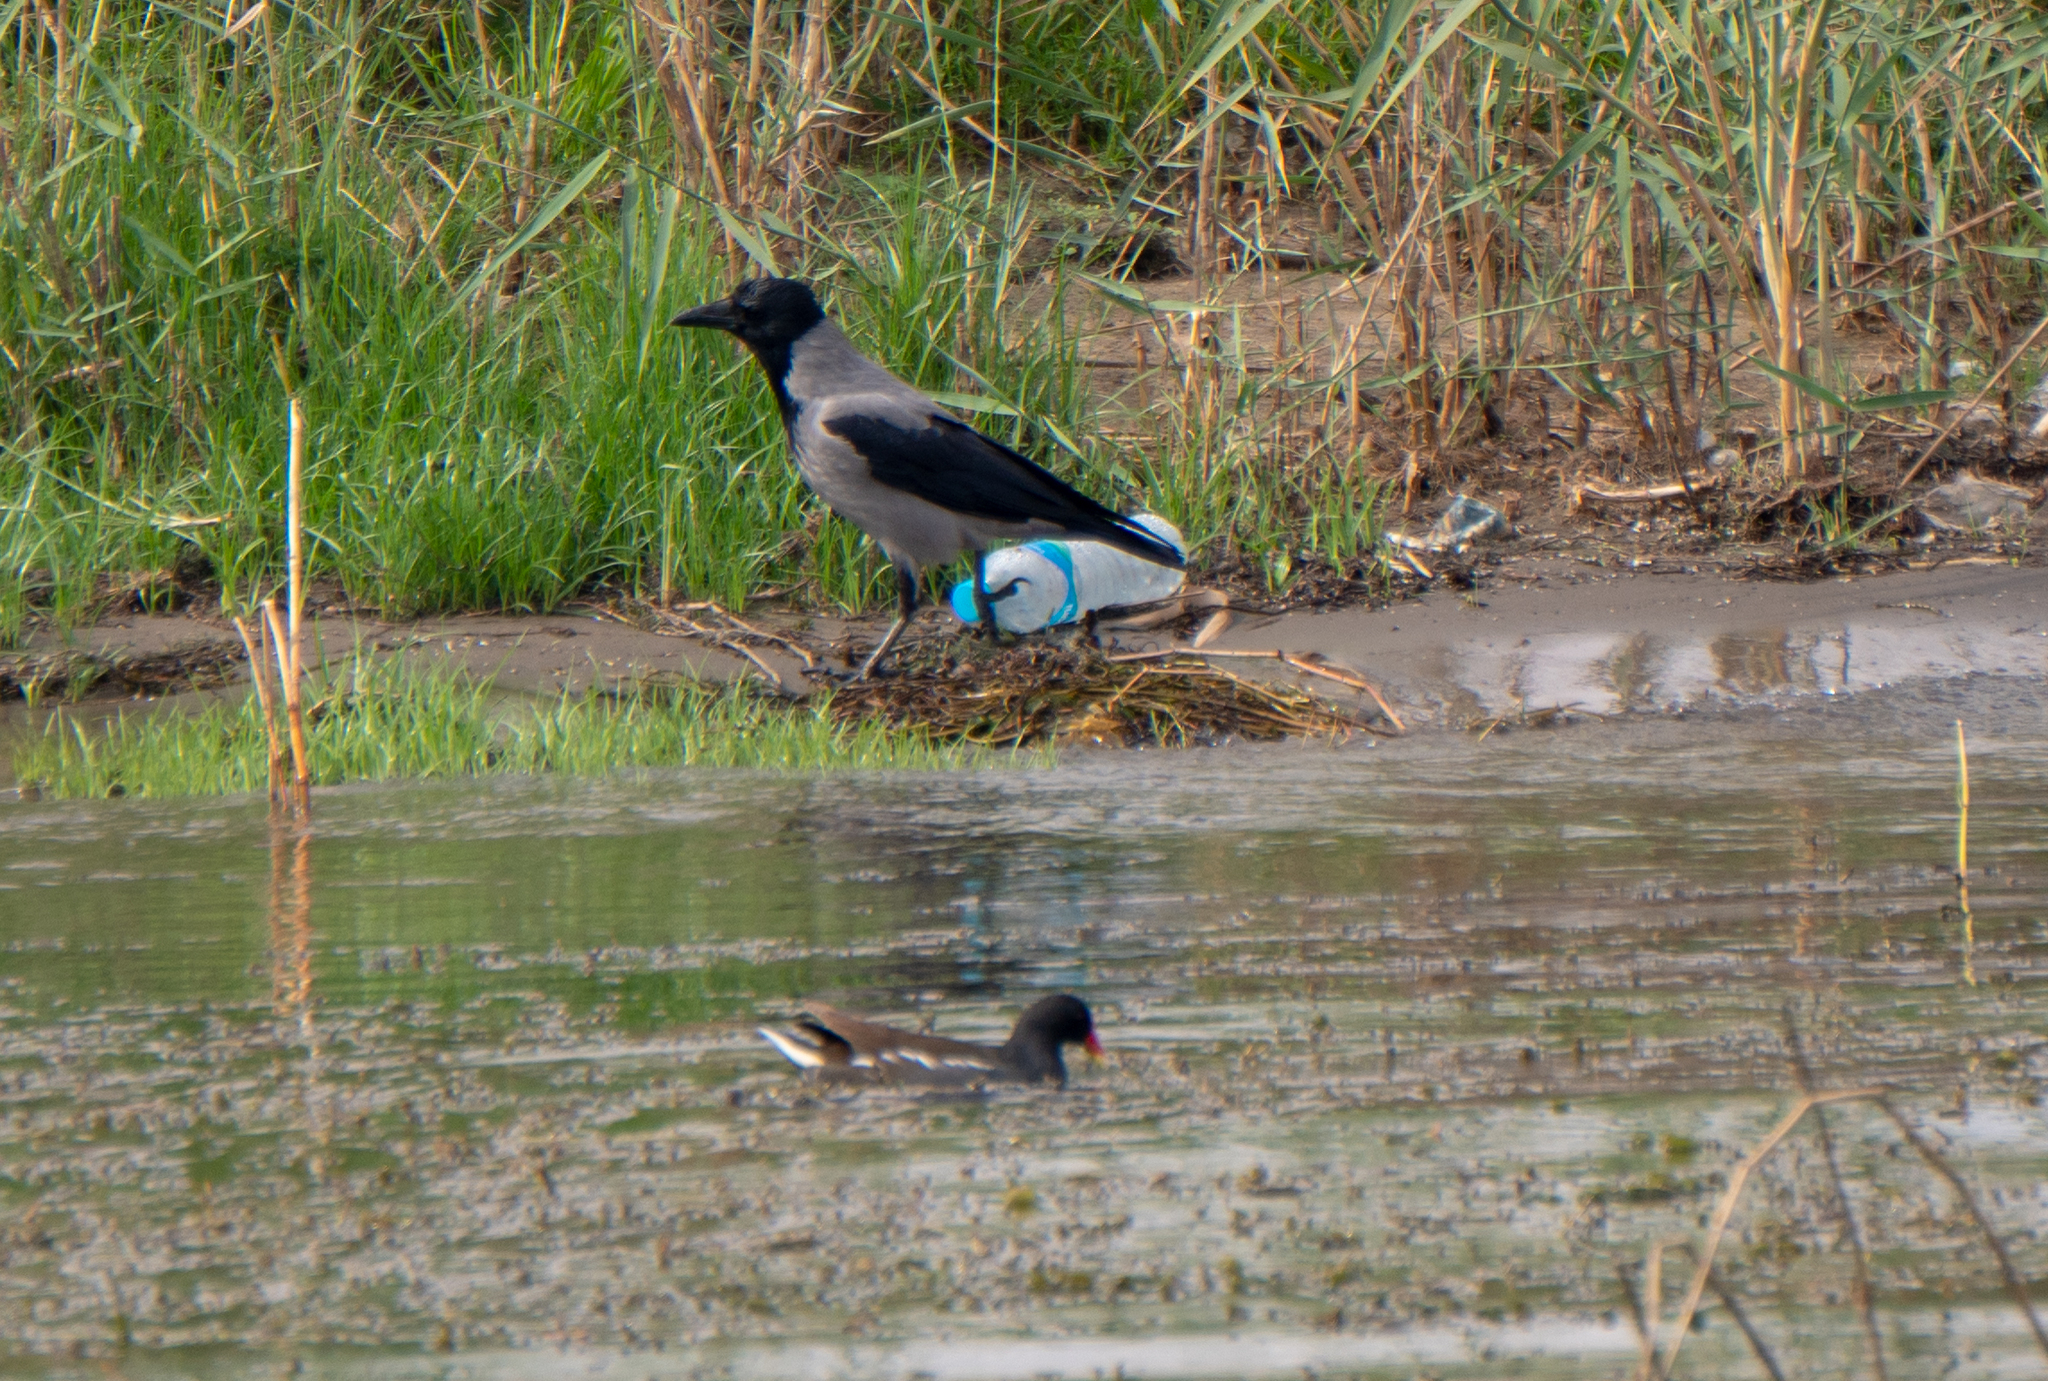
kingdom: Animalia
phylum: Chordata
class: Aves
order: Passeriformes
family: Corvidae
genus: Corvus
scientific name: Corvus cornix
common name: Hooded crow
